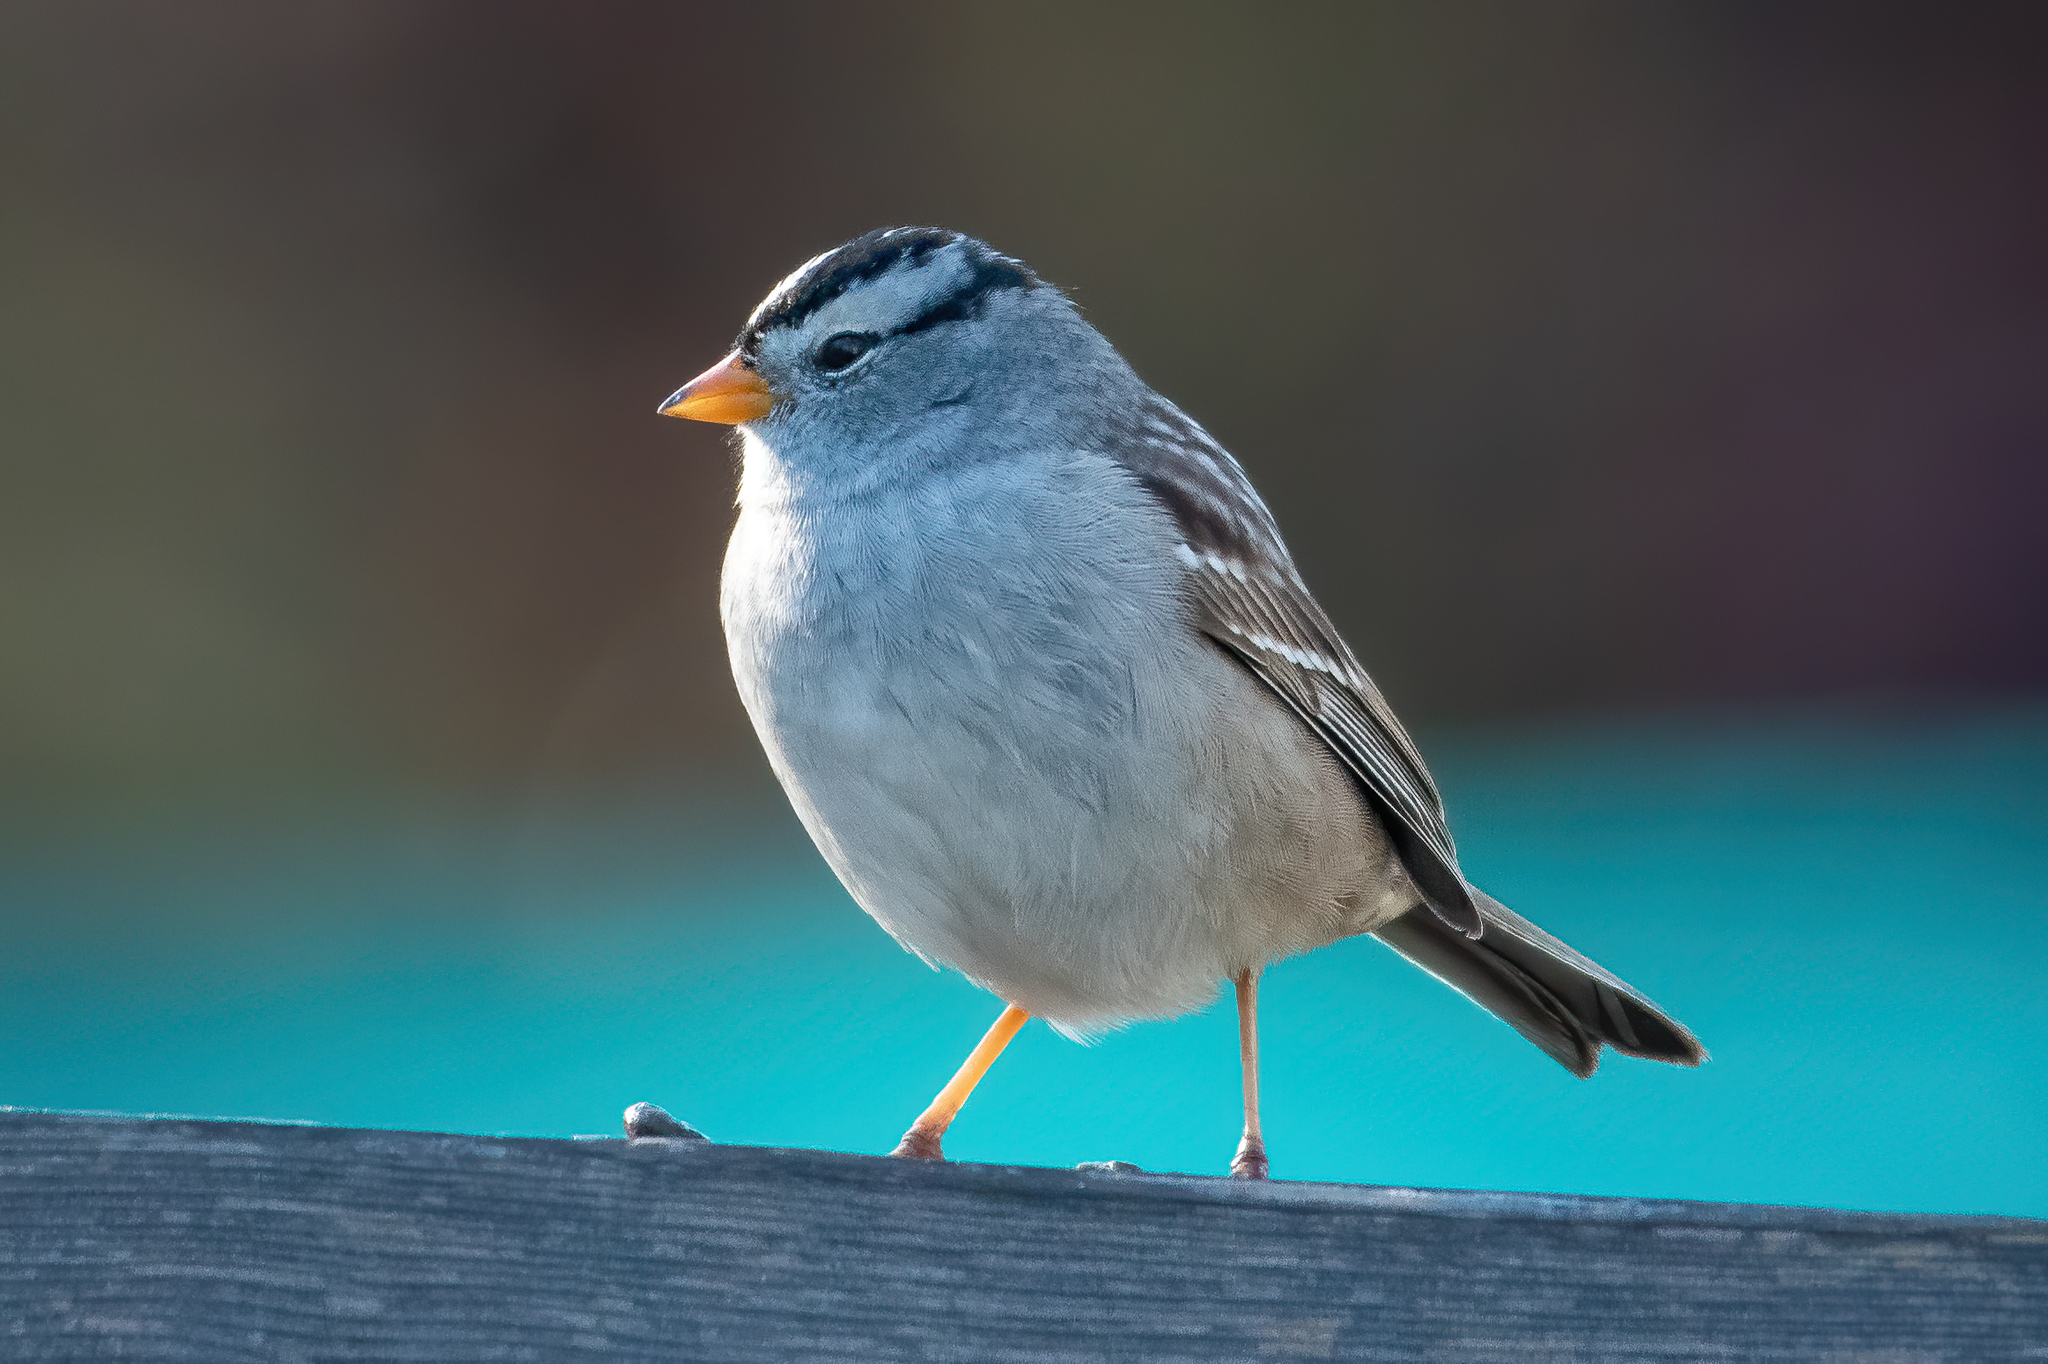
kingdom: Animalia
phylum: Chordata
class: Aves
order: Passeriformes
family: Passerellidae
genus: Zonotrichia
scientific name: Zonotrichia leucophrys
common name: White-crowned sparrow
